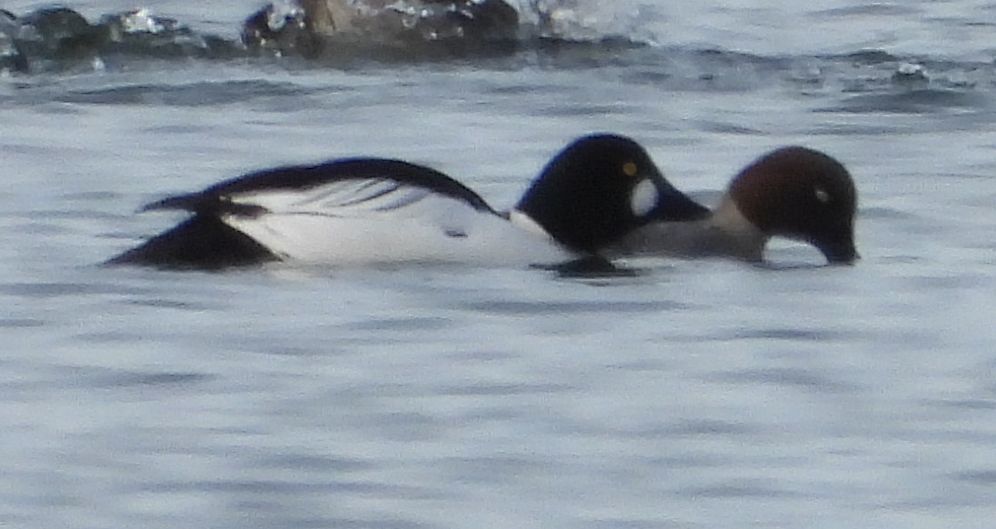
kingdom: Animalia
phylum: Chordata
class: Aves
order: Anseriformes
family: Anatidae
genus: Bucephala
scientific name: Bucephala clangula
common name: Common goldeneye
